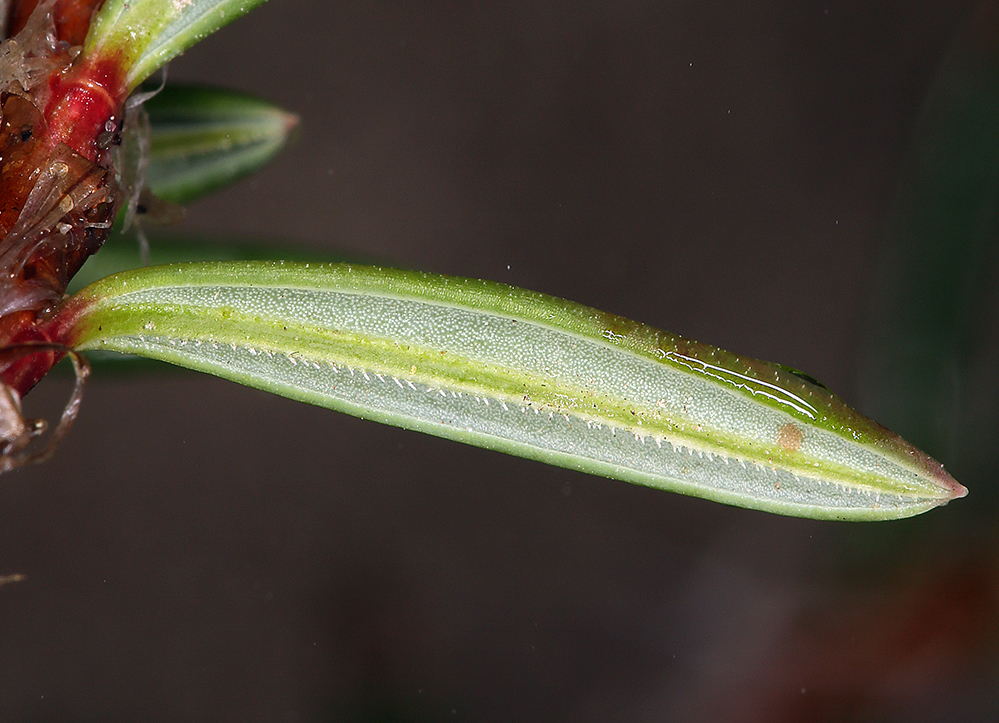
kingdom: Plantae
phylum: Tracheophyta
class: Magnoliopsida
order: Caryophyllales
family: Polygonaceae
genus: Polygonum
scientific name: Polygonum paronychia
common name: Dune knotweed
